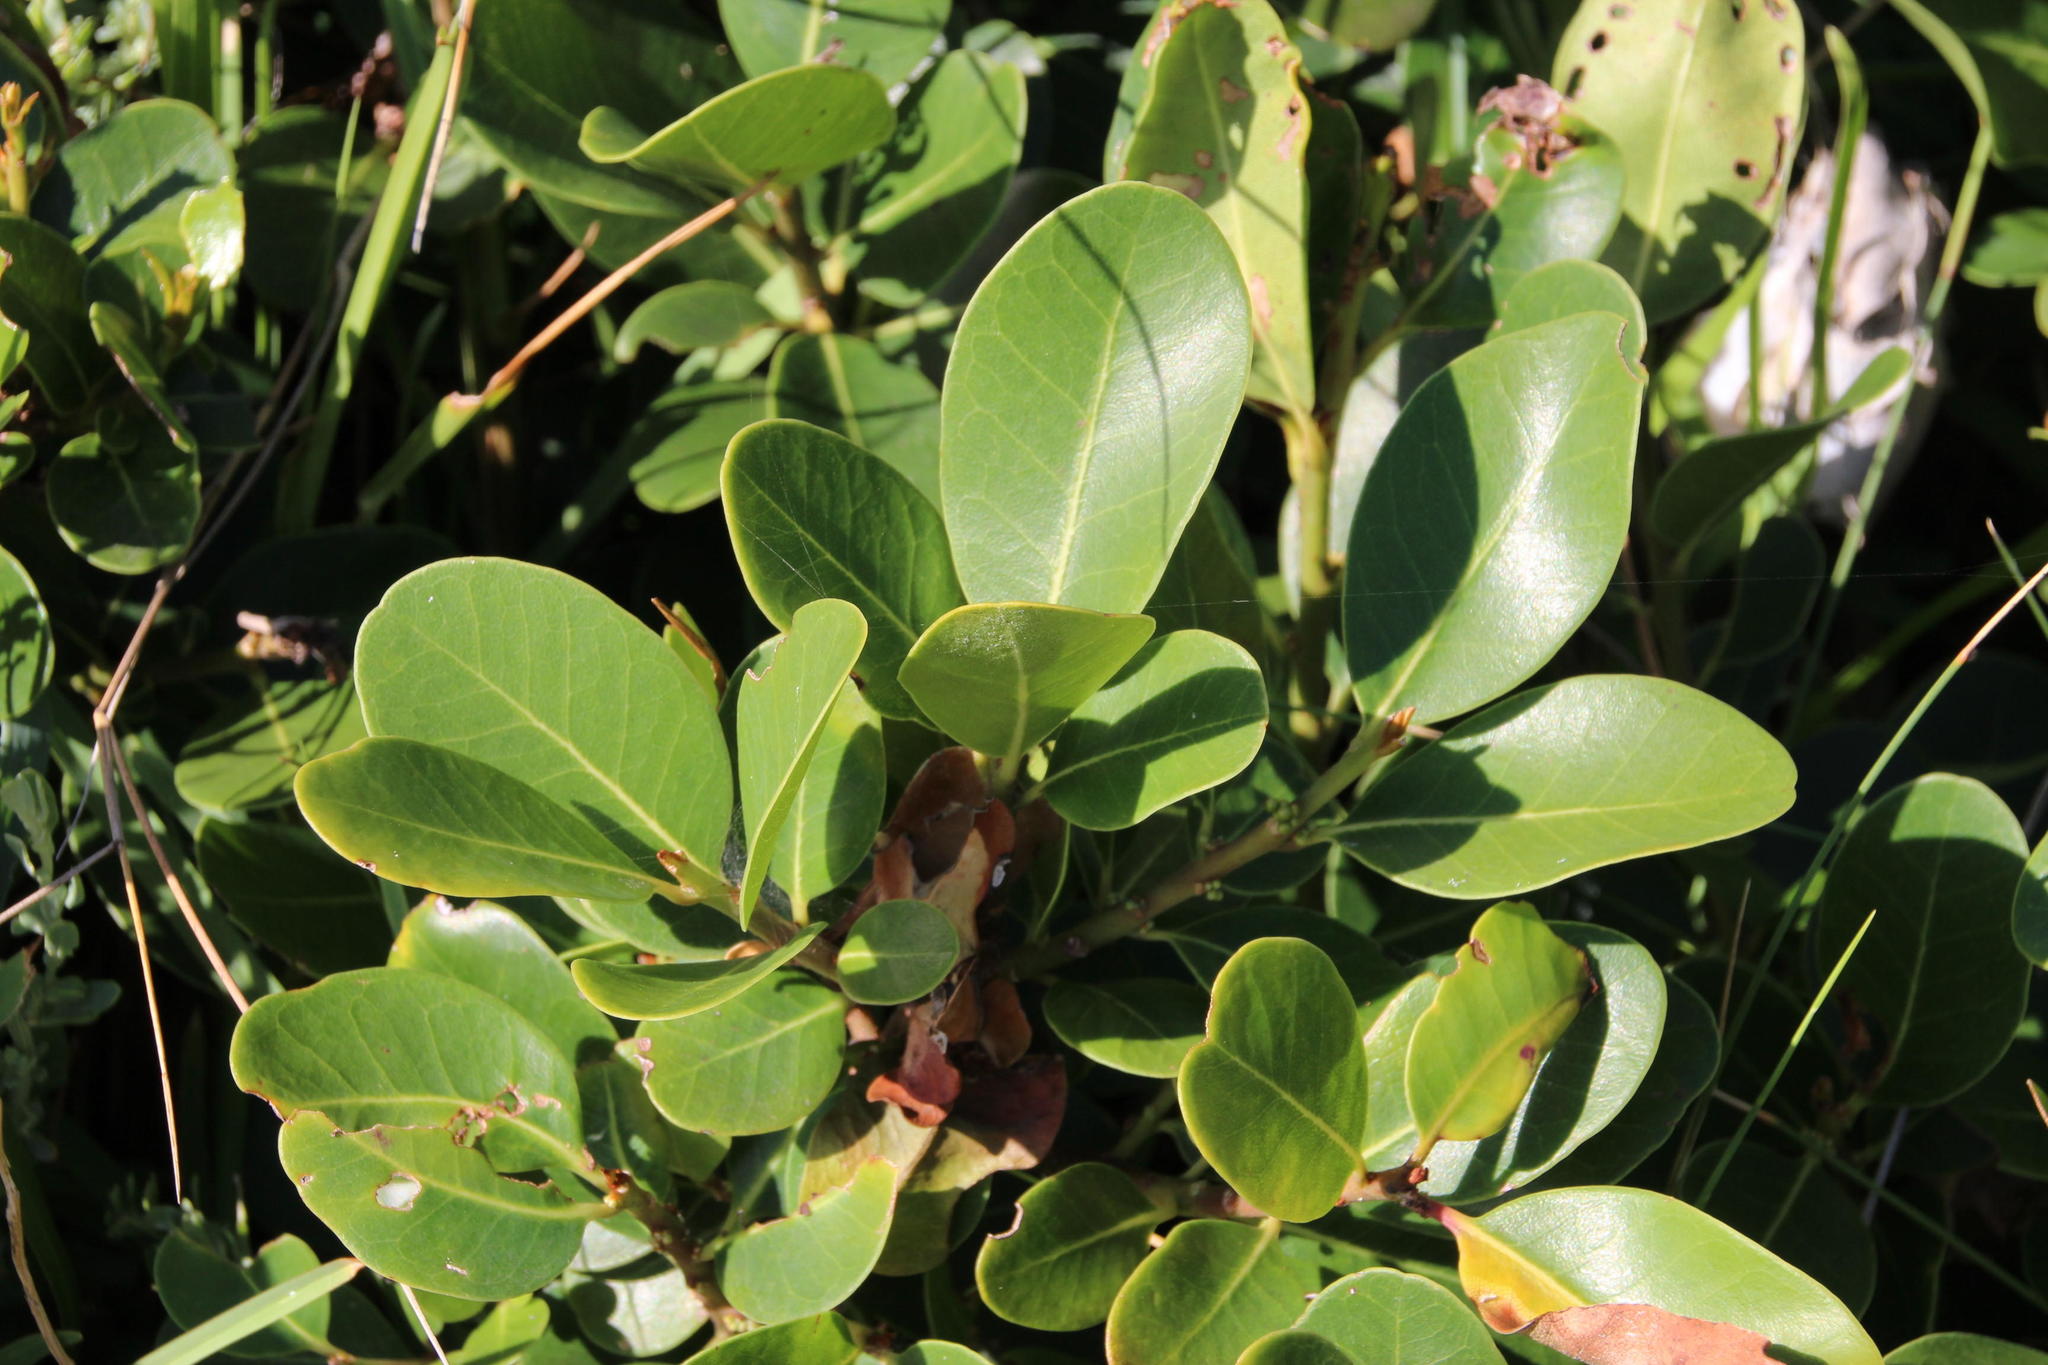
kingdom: Plantae
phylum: Tracheophyta
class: Magnoliopsida
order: Ericales
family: Sapotaceae
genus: Sideroxylon
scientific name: Sideroxylon inerme
